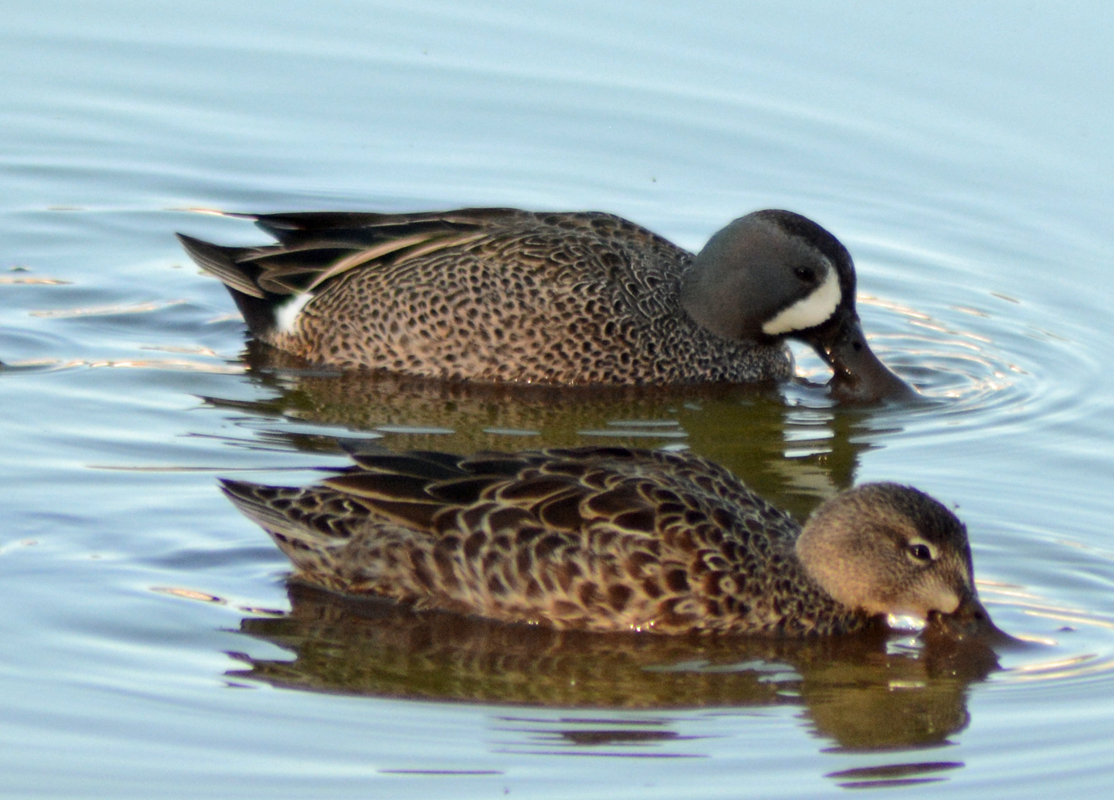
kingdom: Animalia
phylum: Chordata
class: Aves
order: Anseriformes
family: Anatidae
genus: Spatula
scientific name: Spatula discors
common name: Blue-winged teal
